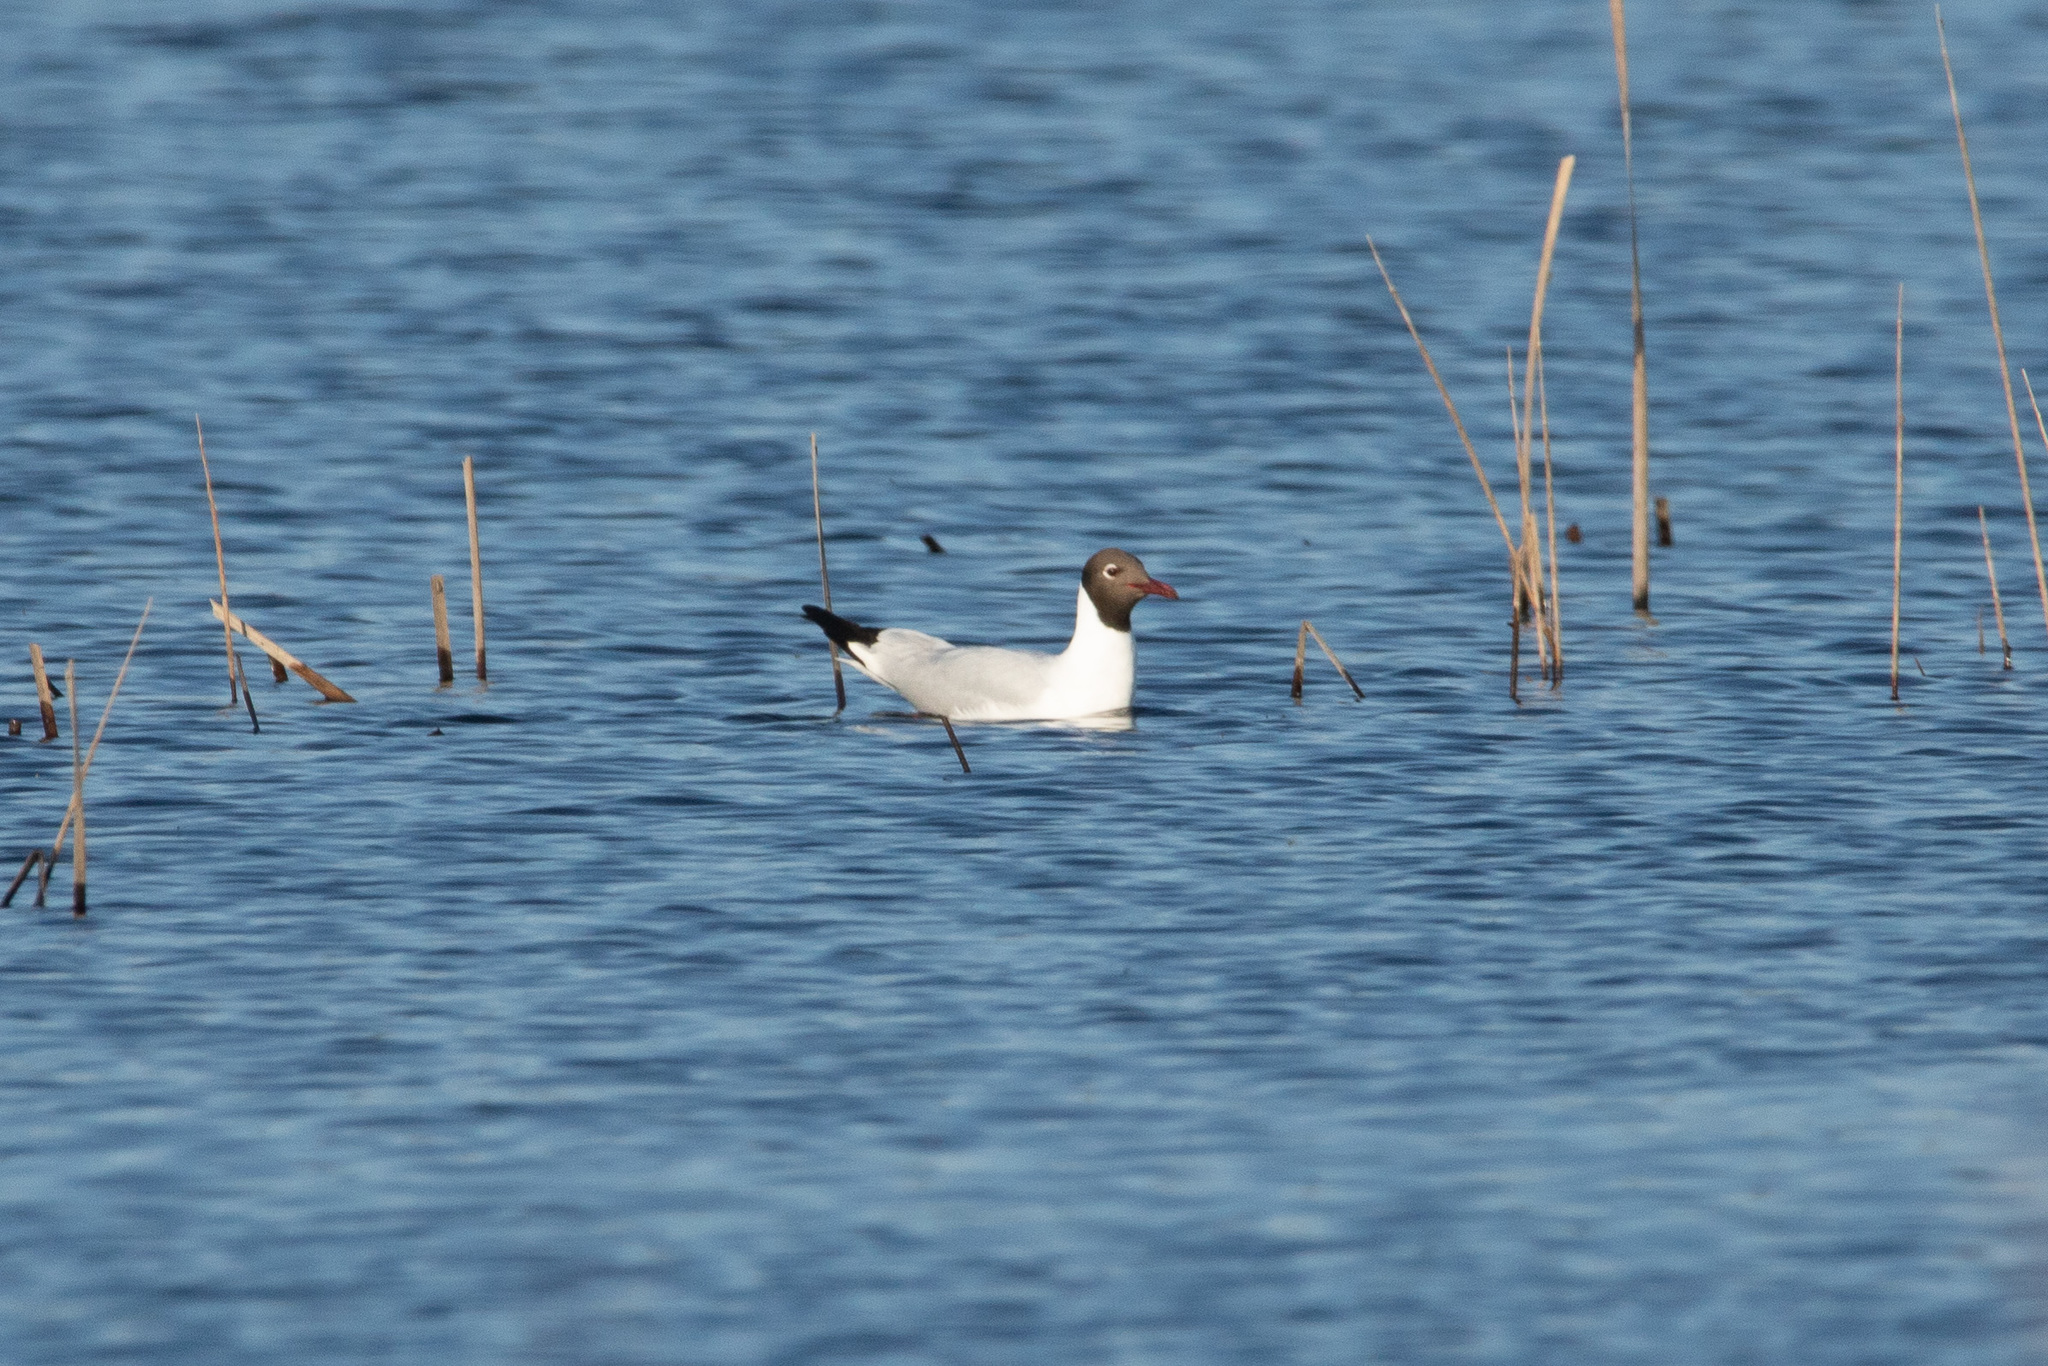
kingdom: Animalia
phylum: Chordata
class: Aves
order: Charadriiformes
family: Laridae
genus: Chroicocephalus
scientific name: Chroicocephalus ridibundus
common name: Black-headed gull
